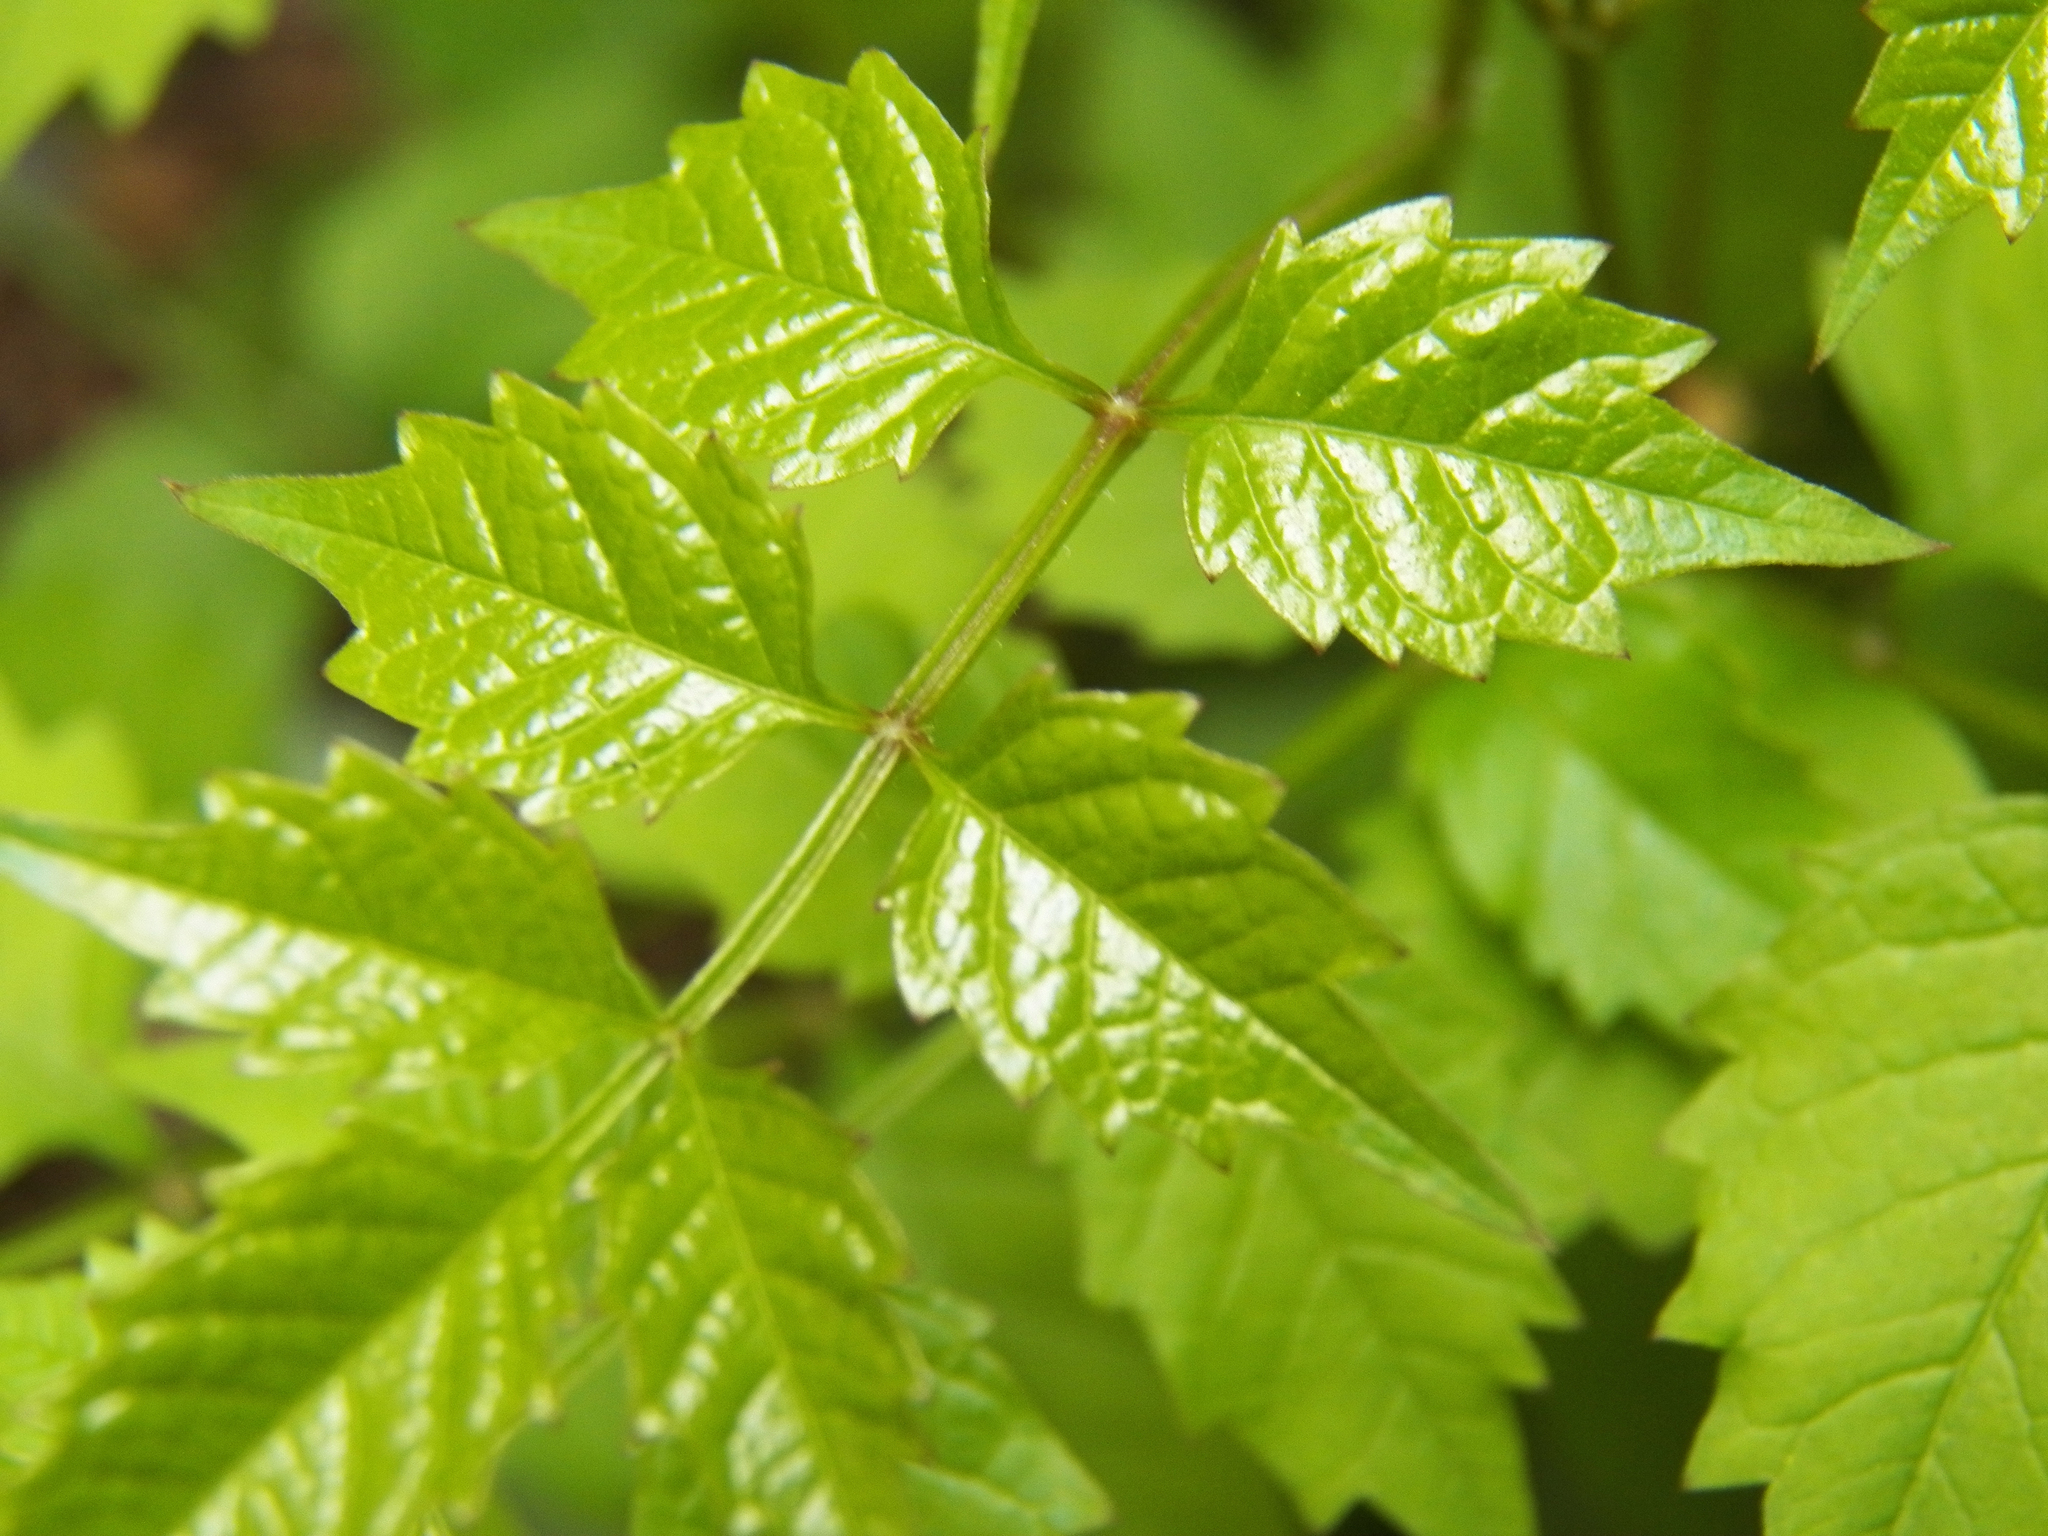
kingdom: Plantae
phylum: Tracheophyta
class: Magnoliopsida
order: Lamiales
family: Bignoniaceae
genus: Campsis
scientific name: Campsis radicans
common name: Trumpet-creeper
